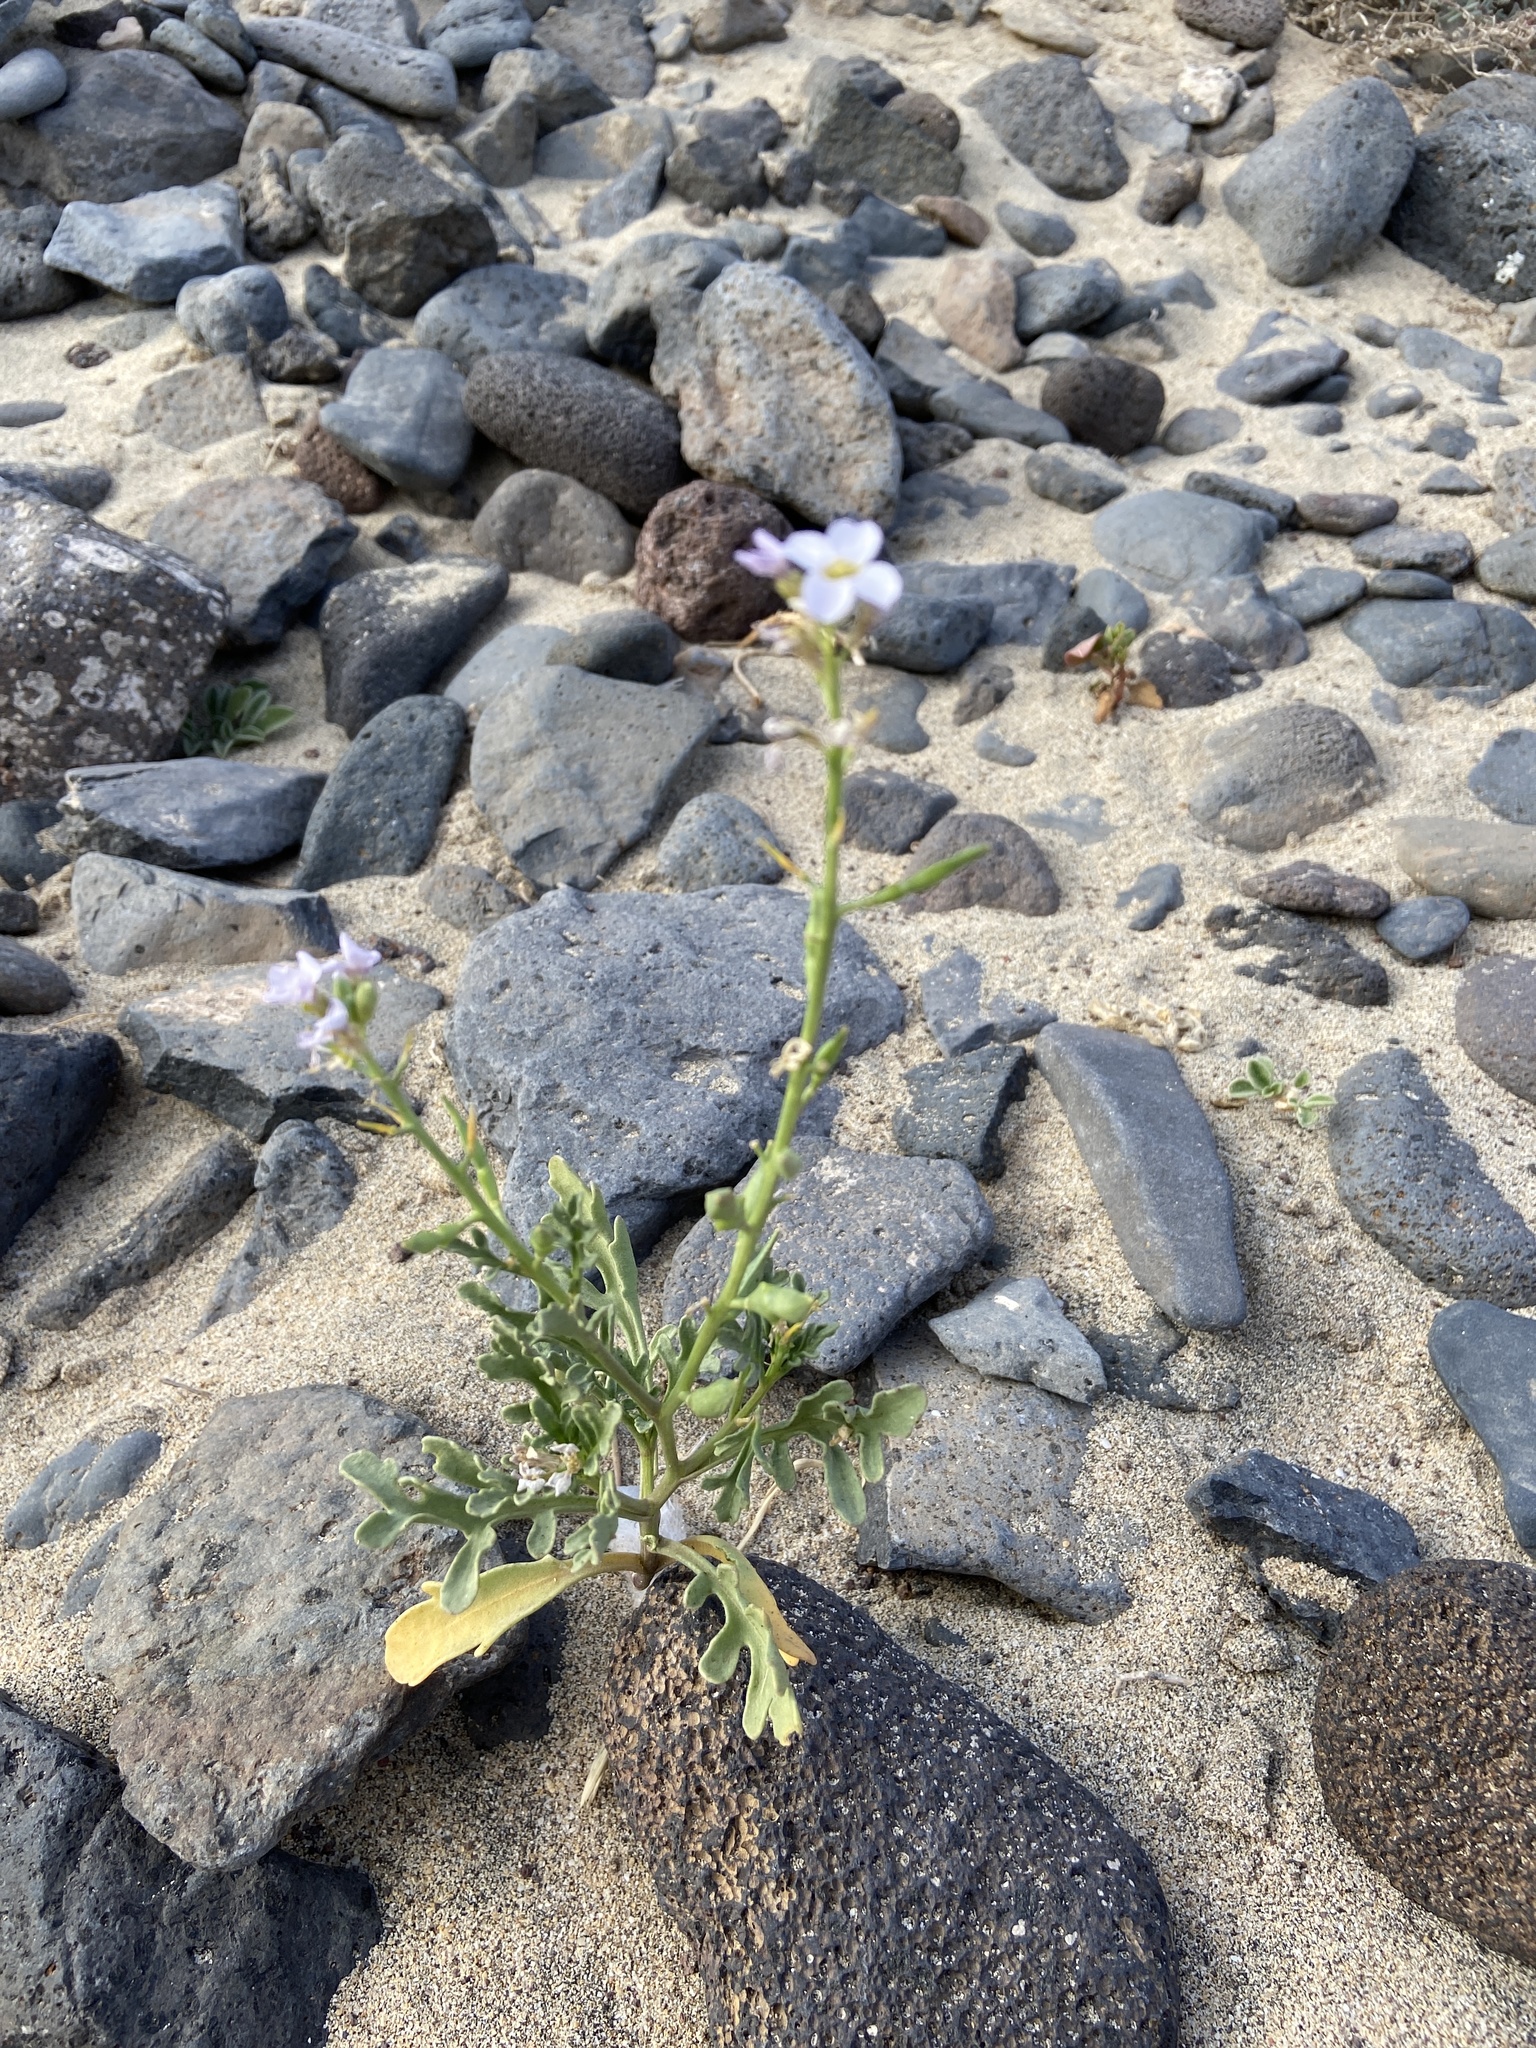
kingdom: Plantae
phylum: Tracheophyta
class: Magnoliopsida
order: Brassicales
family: Brassicaceae
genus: Cakile
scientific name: Cakile maritima
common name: Sea rocket
